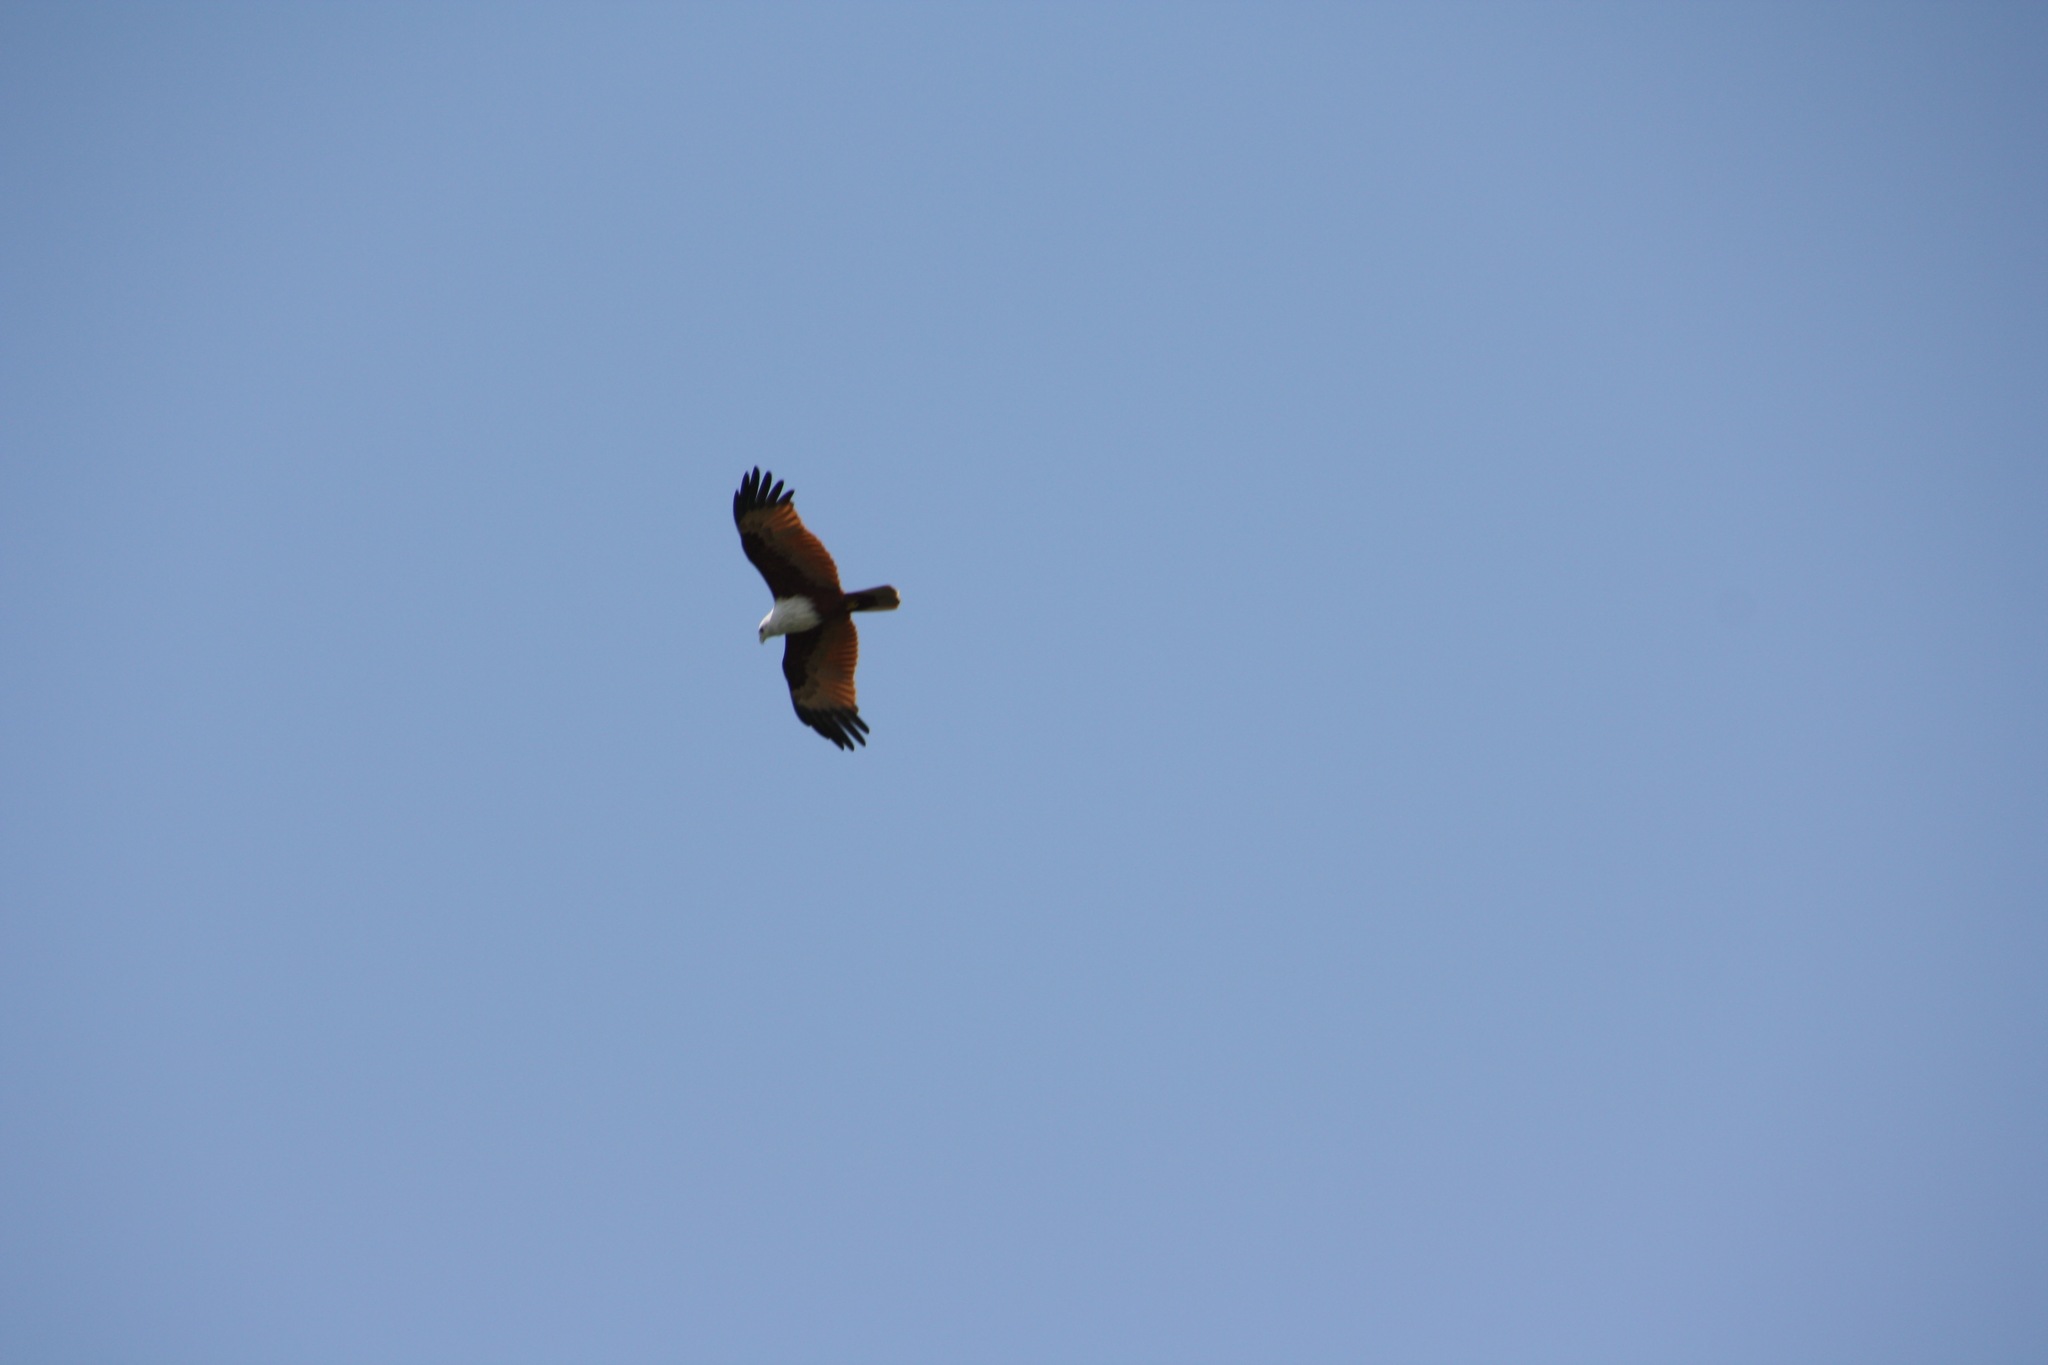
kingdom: Animalia
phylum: Chordata
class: Aves
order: Accipitriformes
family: Accipitridae
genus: Haliastur
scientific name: Haliastur indus
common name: Brahminy kite
